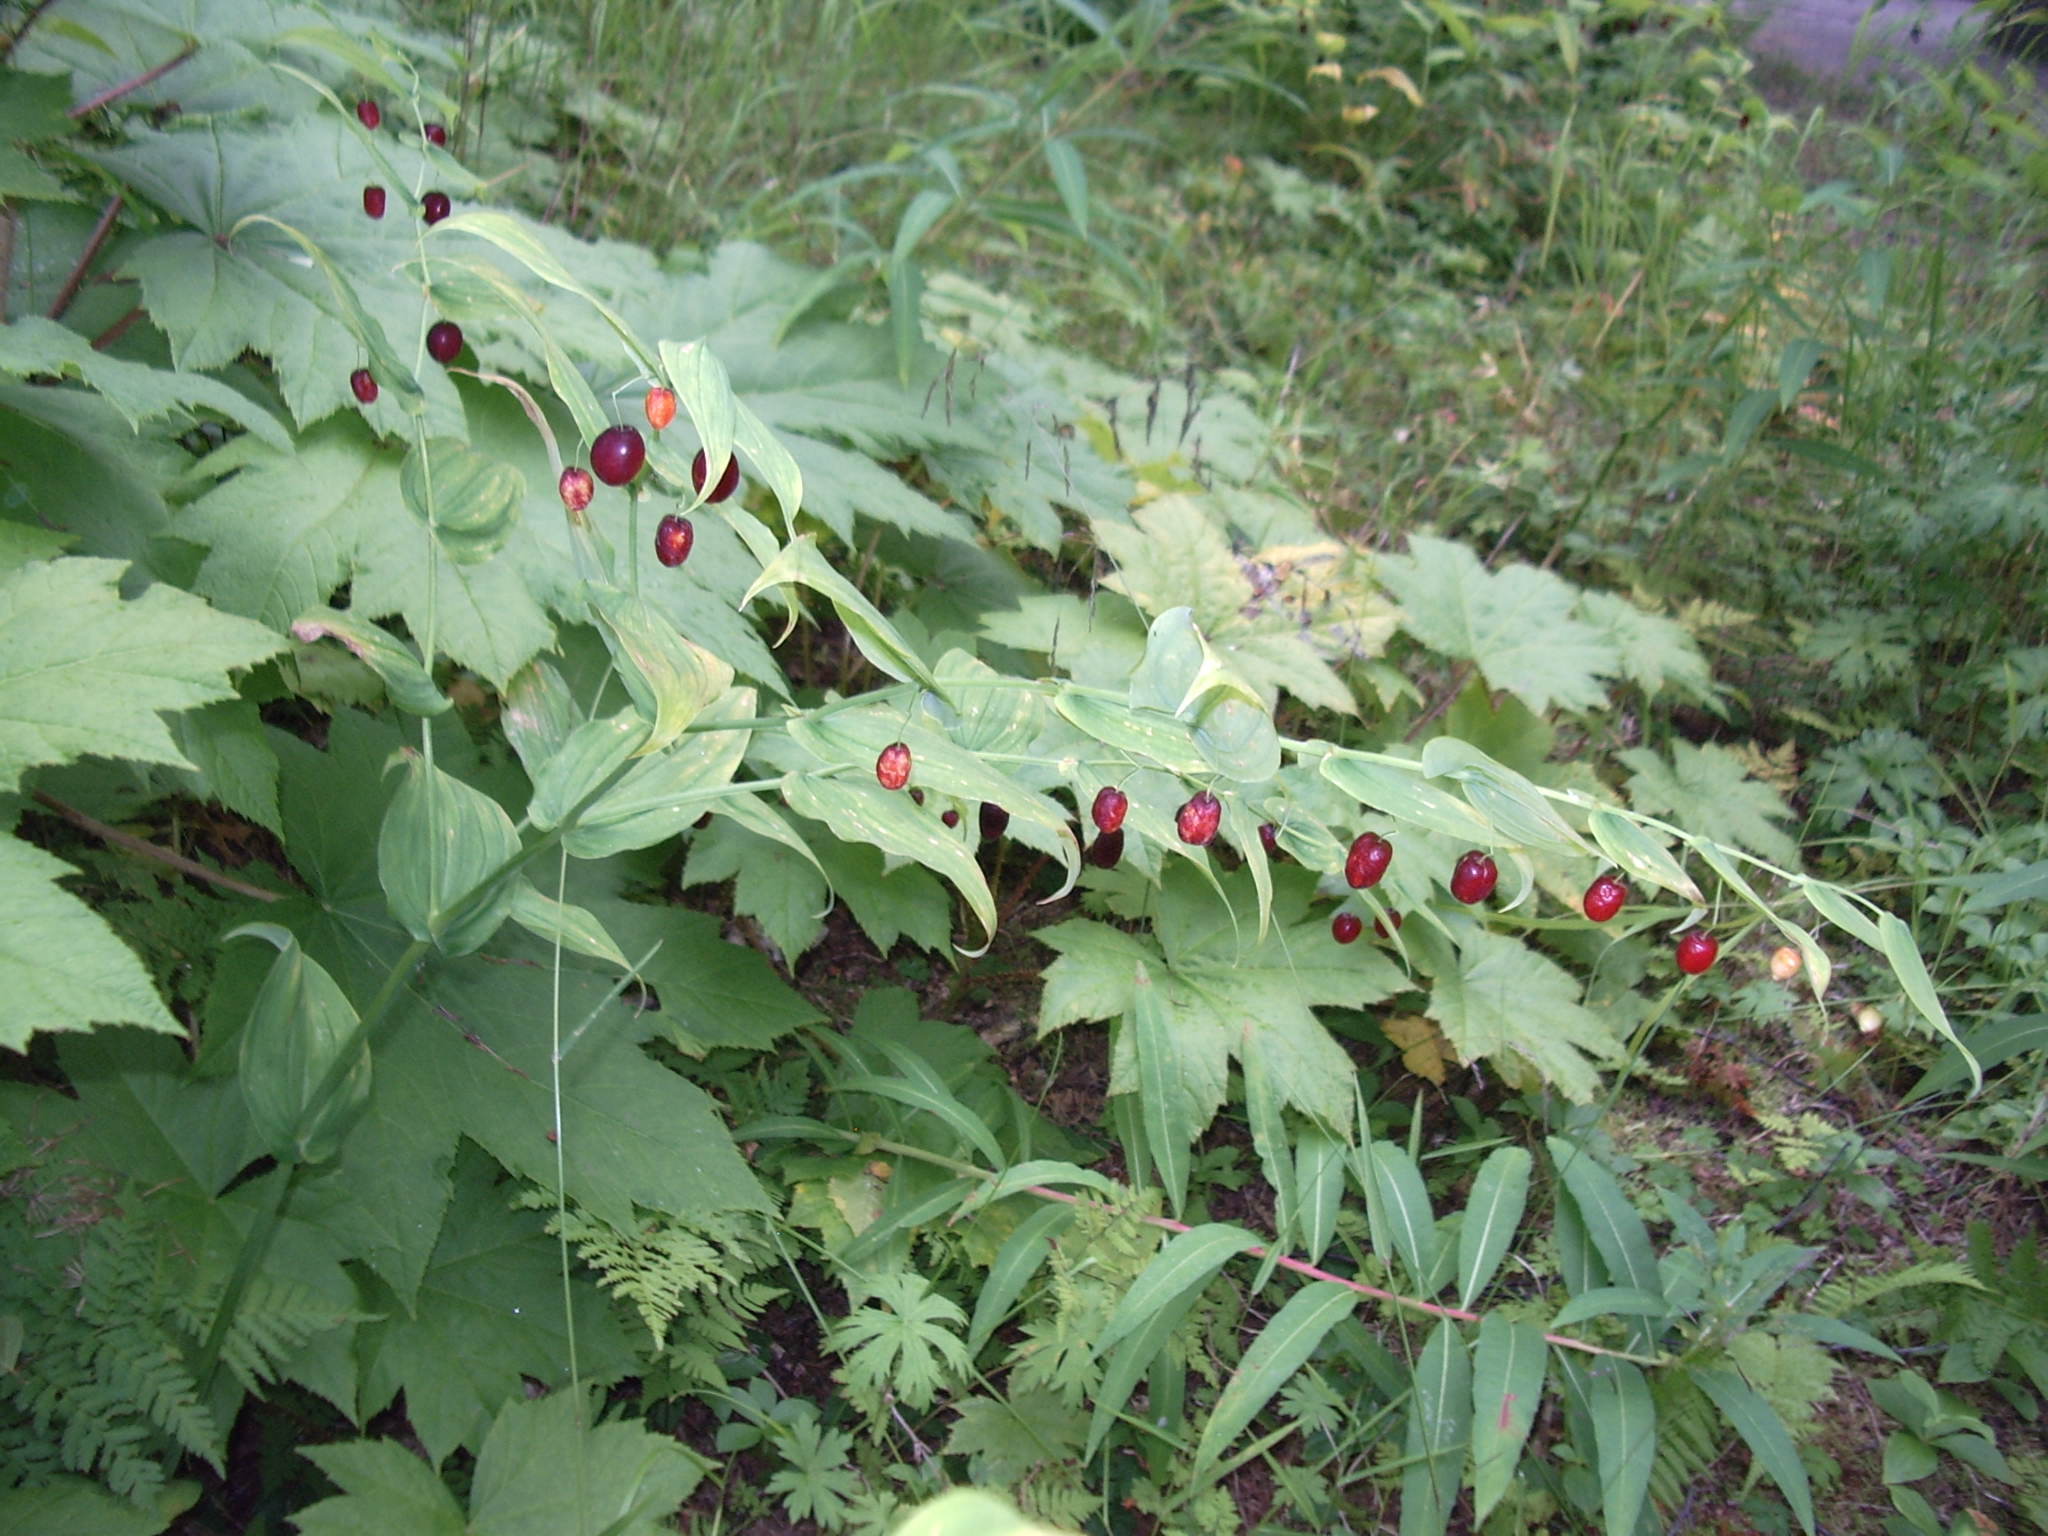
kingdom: Plantae
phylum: Tracheophyta
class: Liliopsida
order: Liliales
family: Liliaceae
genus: Streptopus
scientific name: Streptopus amplexifolius
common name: Clasp twisted stalk
